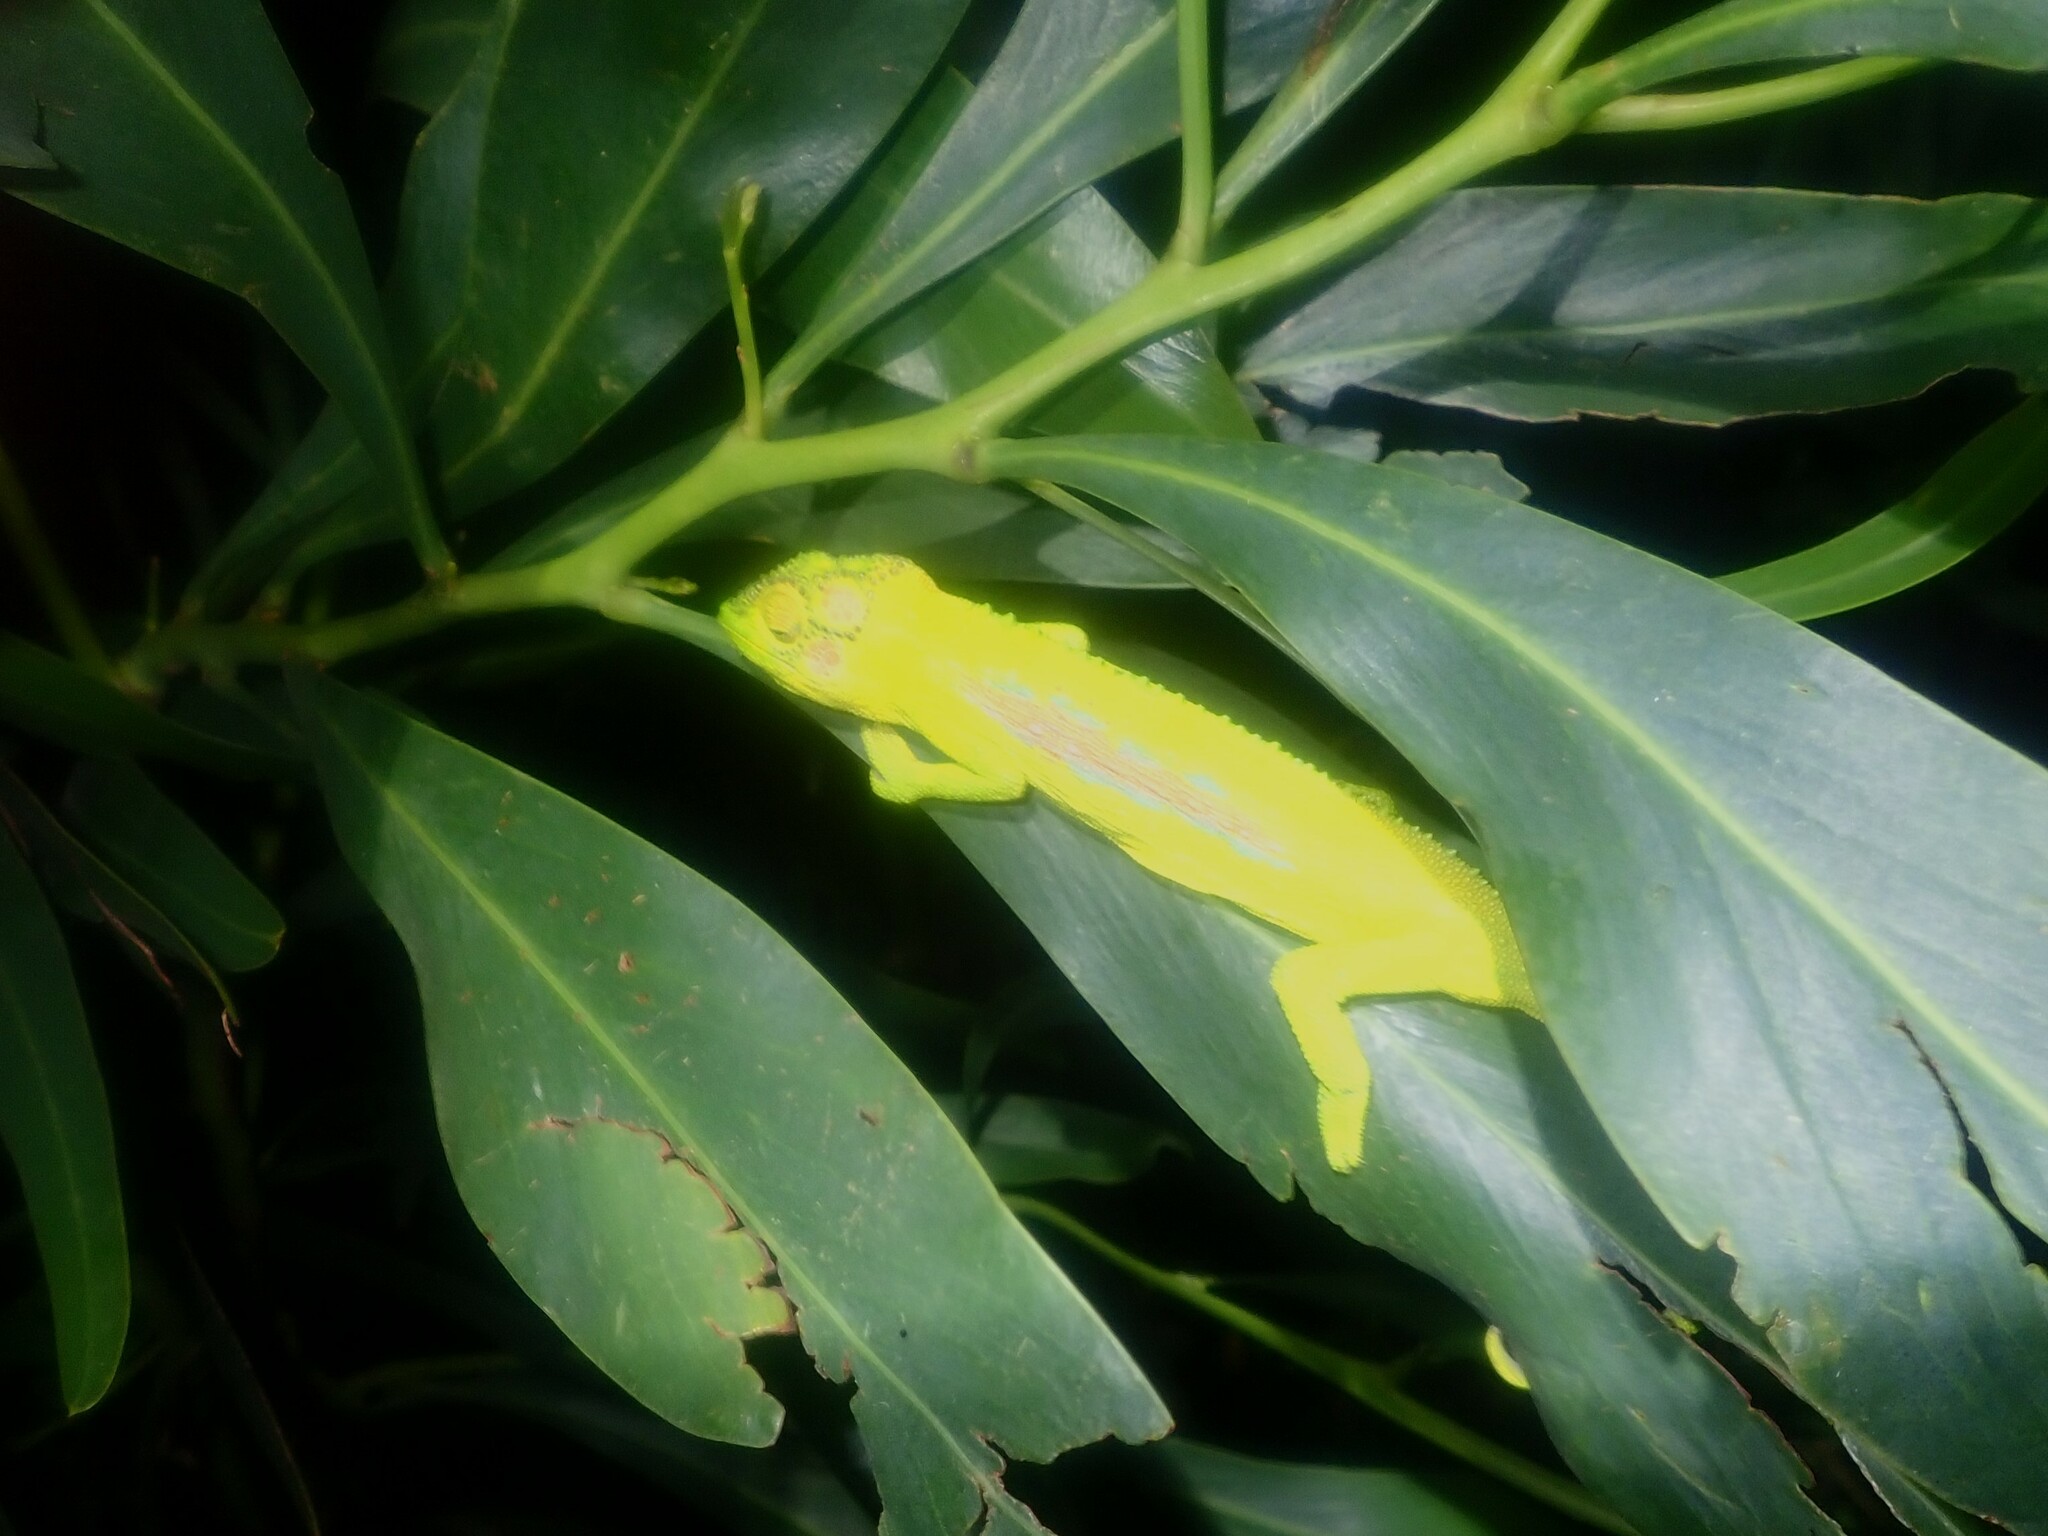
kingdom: Animalia
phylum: Chordata
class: Squamata
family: Chamaeleonidae
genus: Bradypodion
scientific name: Bradypodion pumilum
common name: Cape dwarf chameleon
